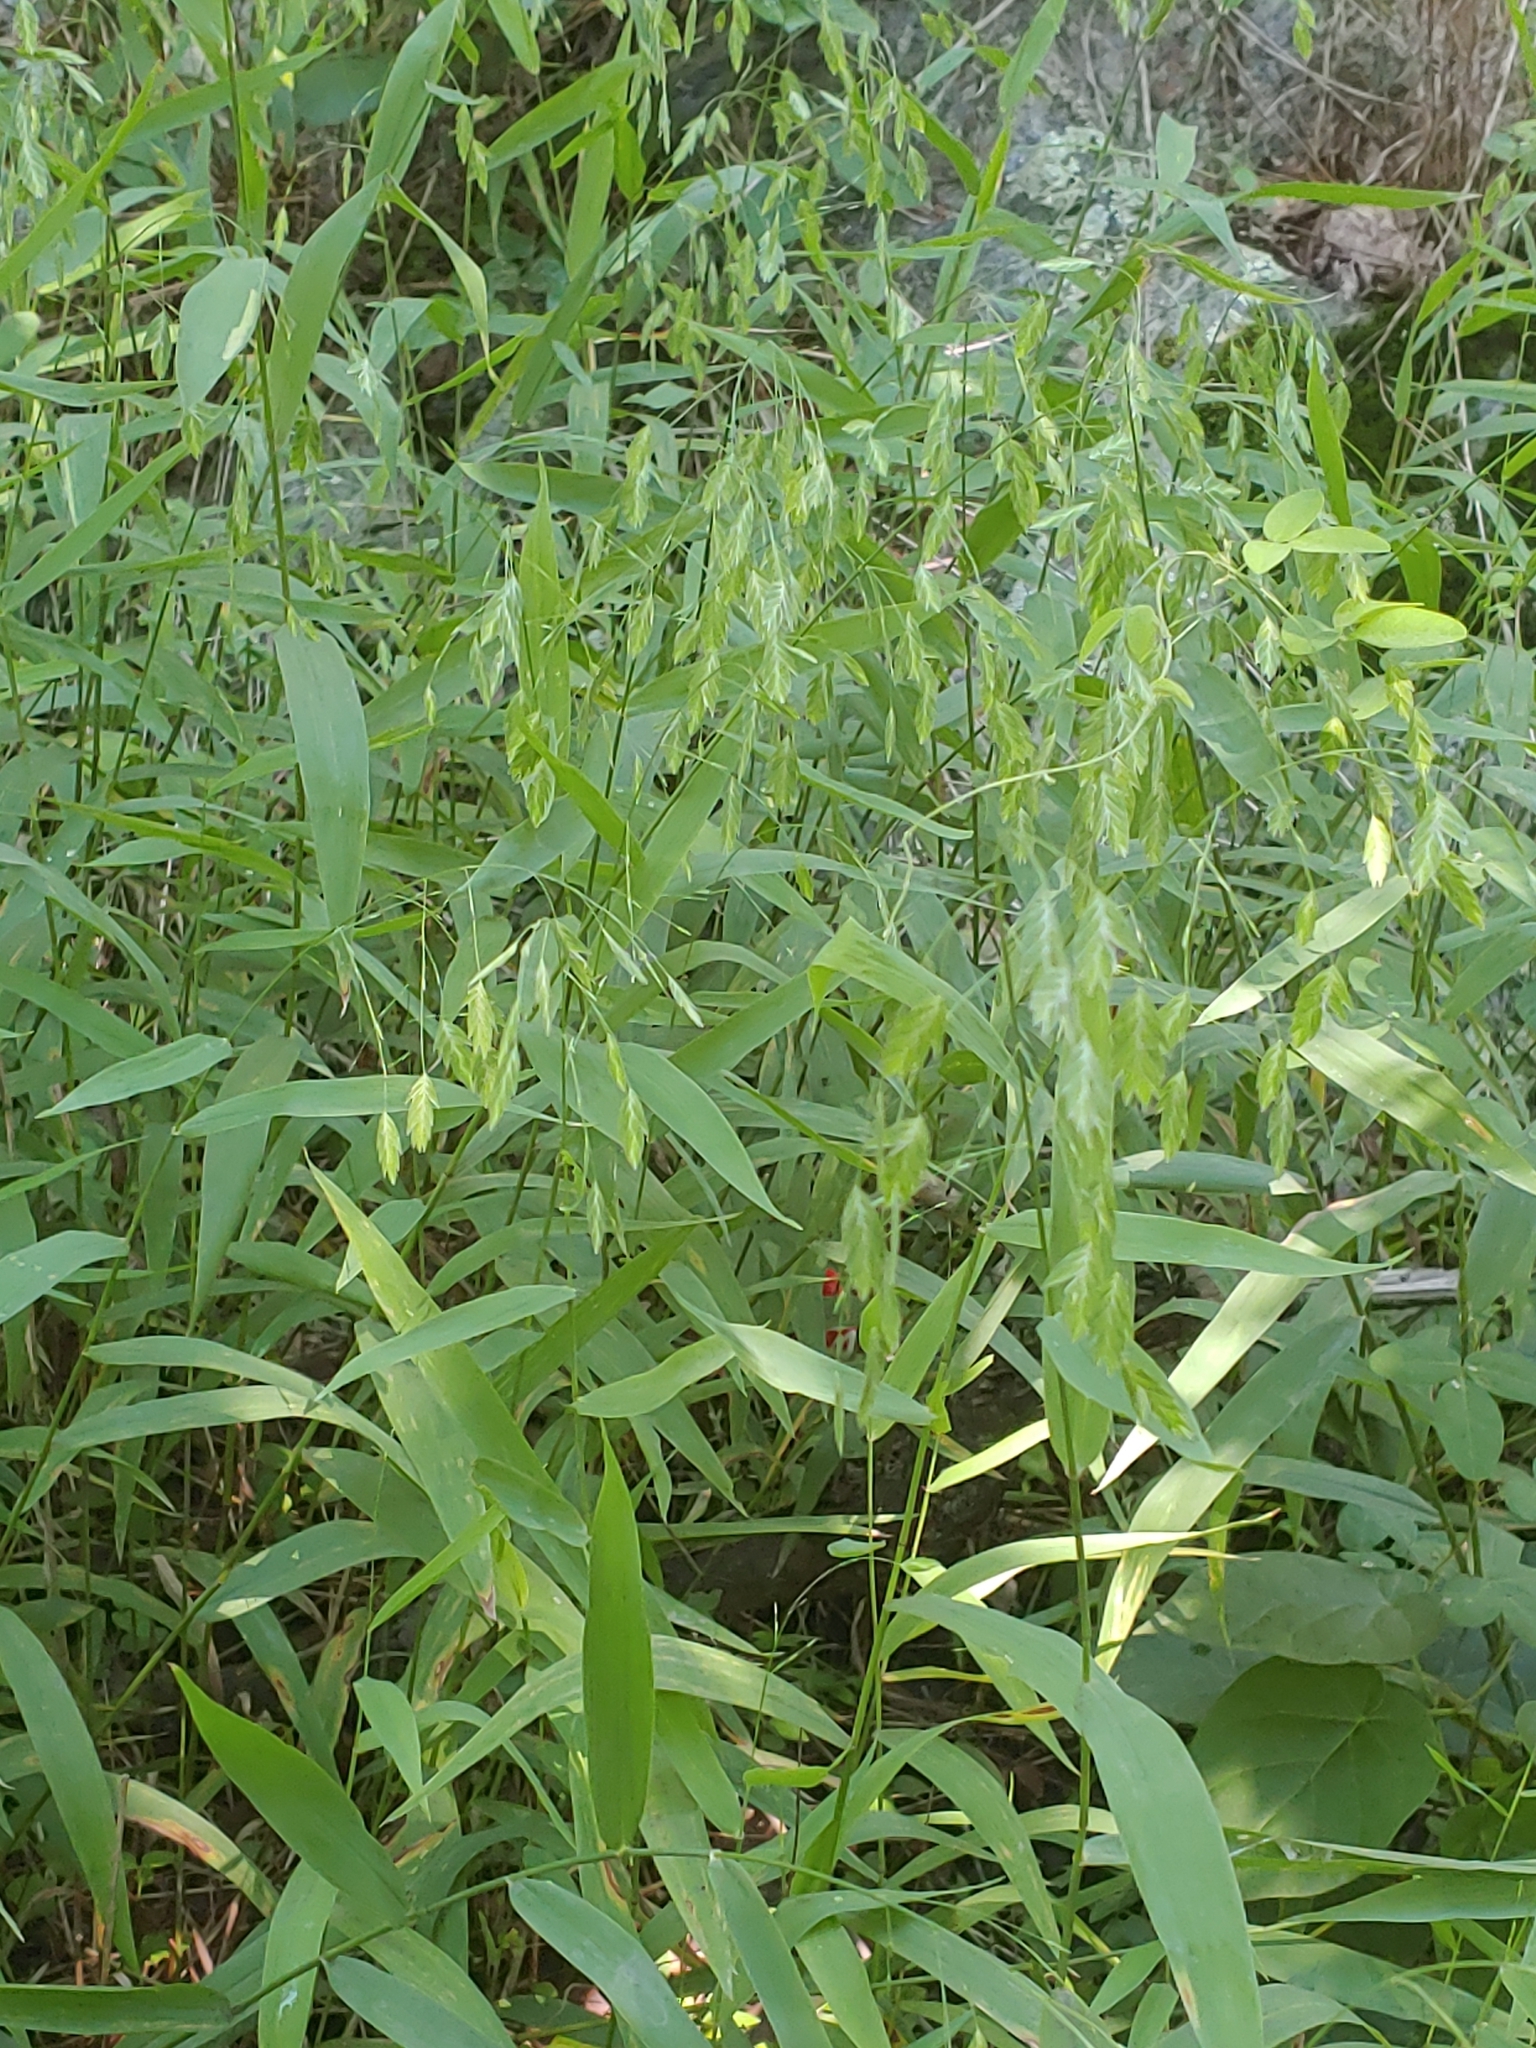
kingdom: Plantae
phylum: Tracheophyta
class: Liliopsida
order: Poales
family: Poaceae
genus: Chasmanthium
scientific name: Chasmanthium latifolium
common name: Broad-leaved chasmanthium
